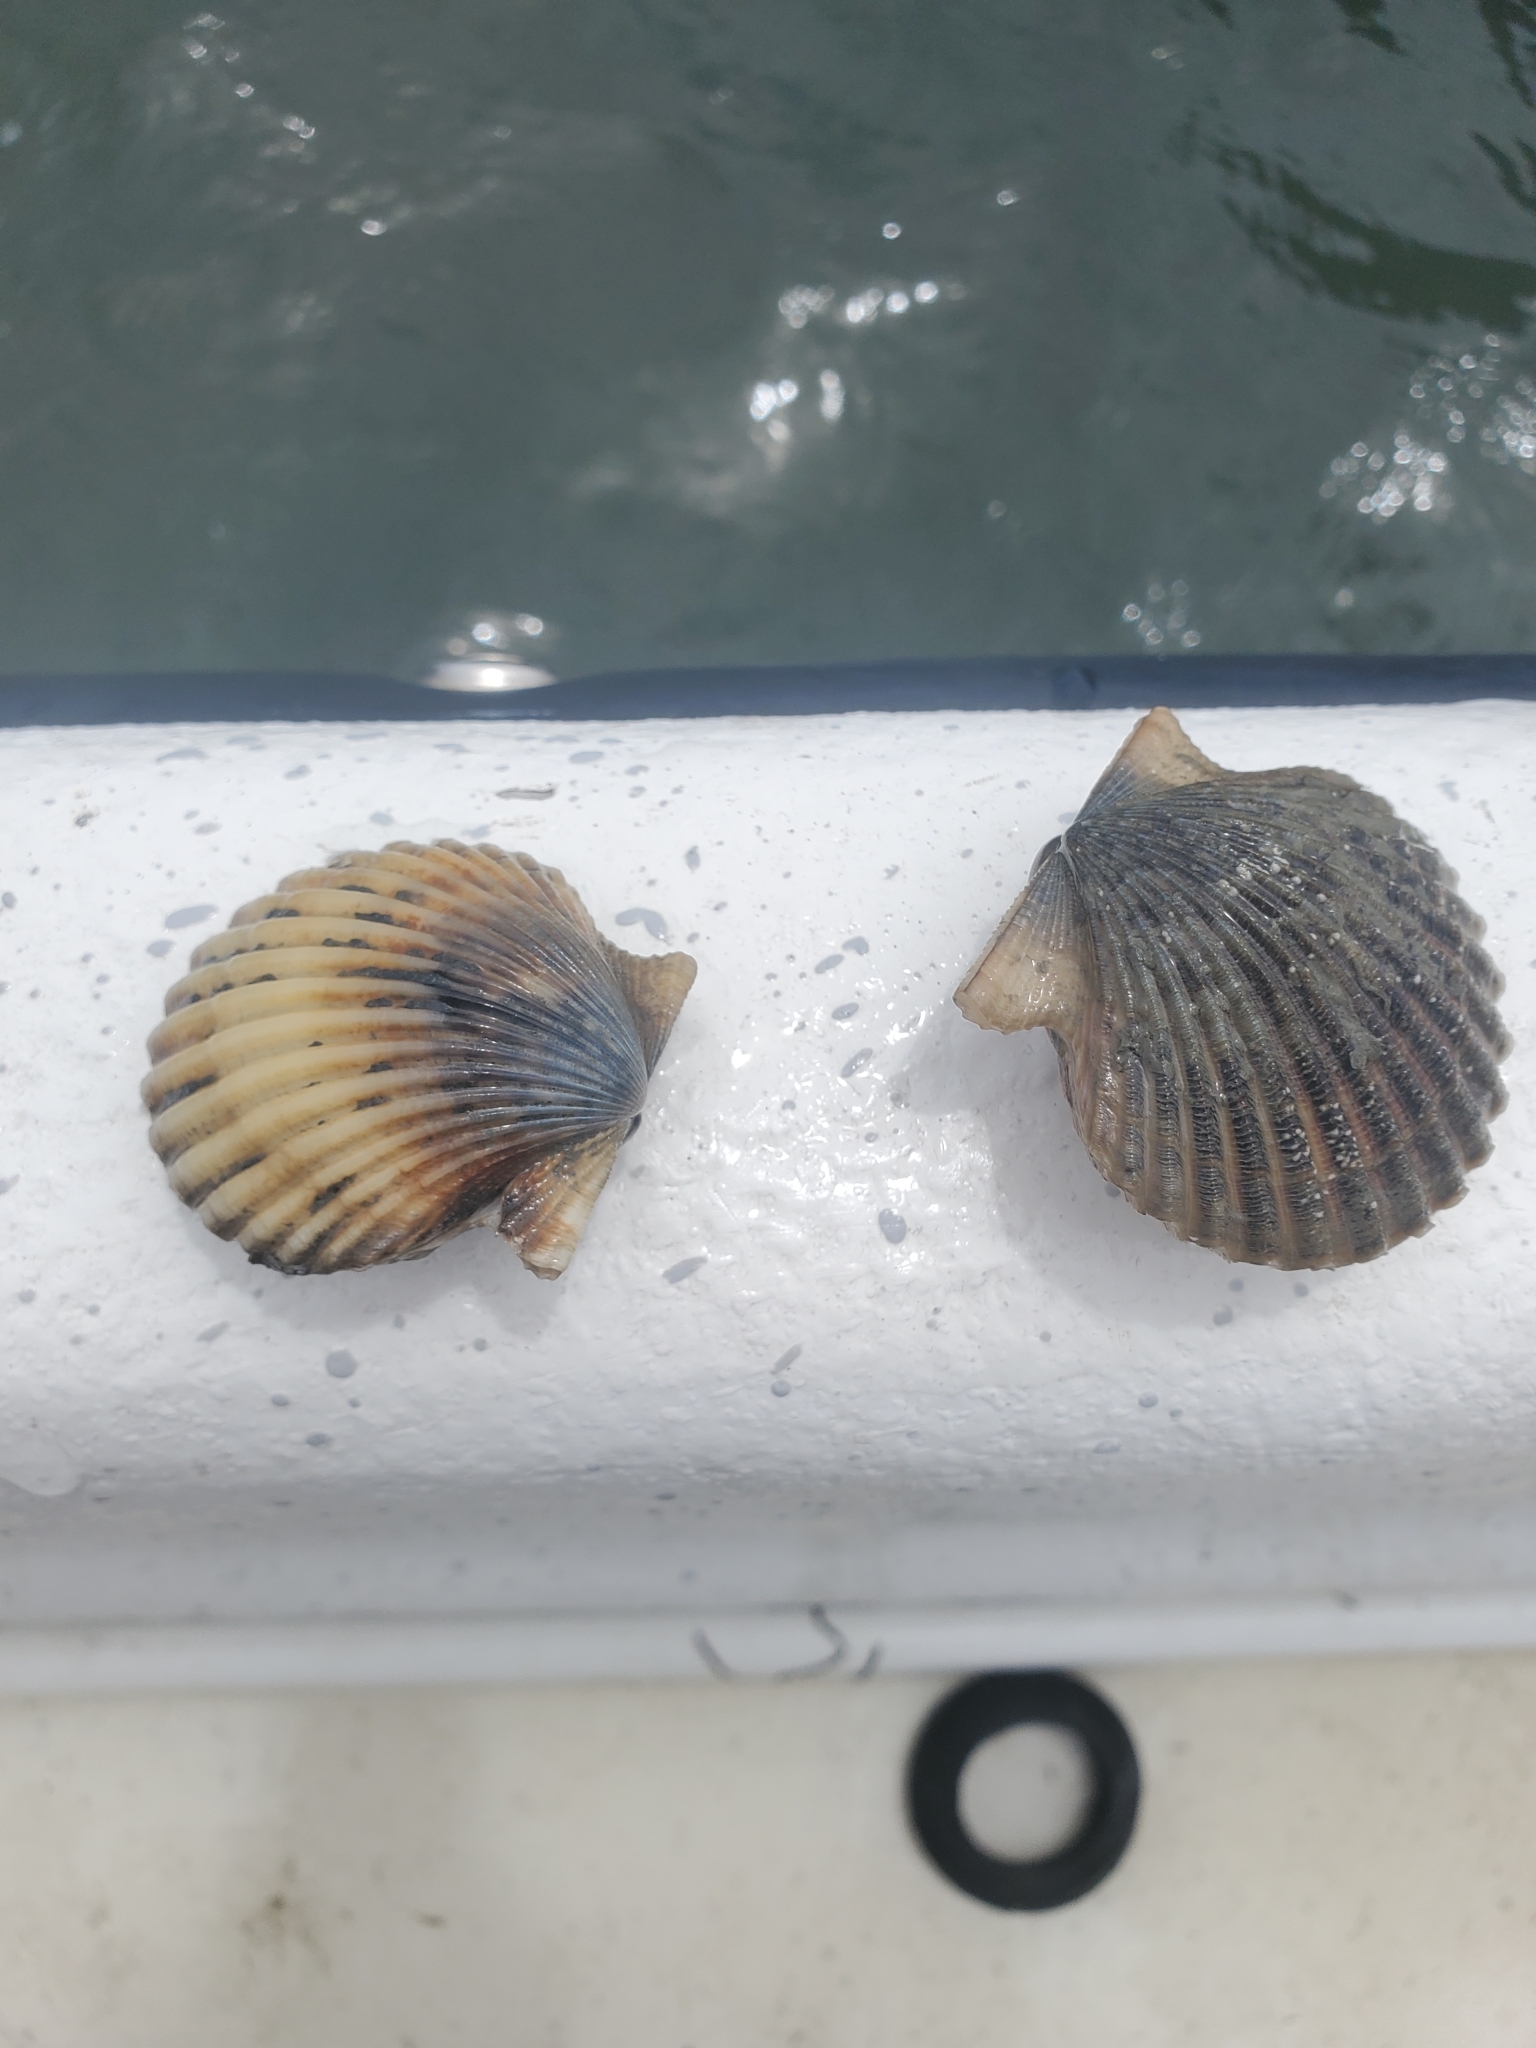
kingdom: Animalia
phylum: Mollusca
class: Bivalvia
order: Pectinida
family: Pectinidae
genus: Argopecten
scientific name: Argopecten irradians
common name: Atlantic bay scallop
